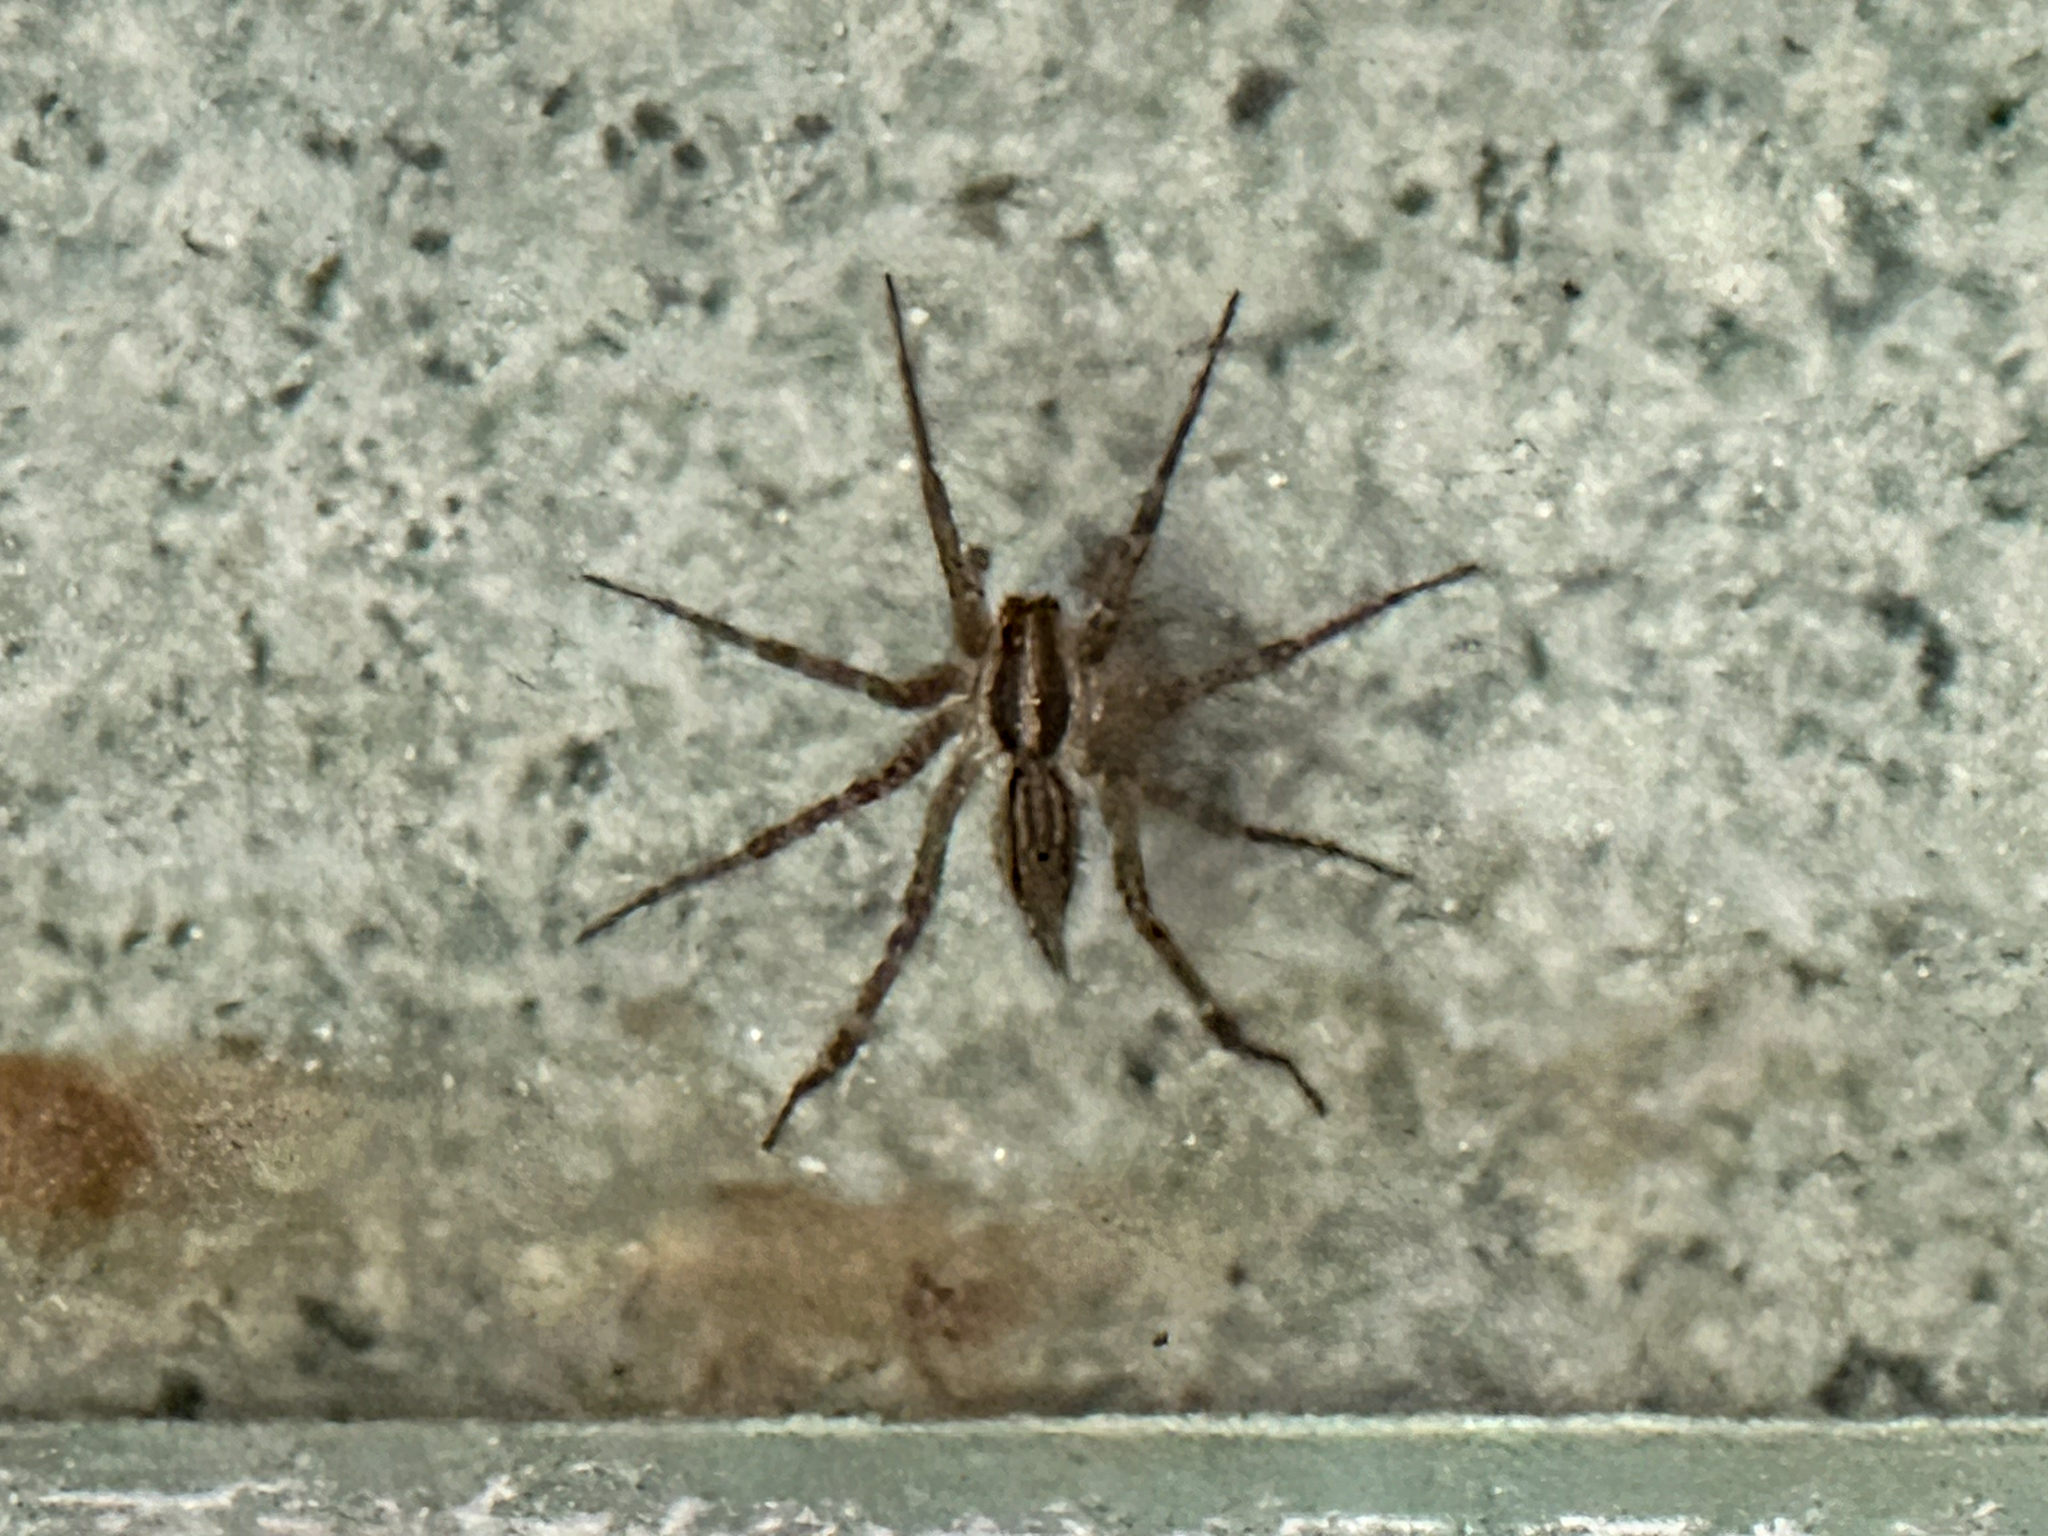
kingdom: Animalia
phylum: Arthropoda
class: Arachnida
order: Araneae
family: Agelenidae
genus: Agelenopsis
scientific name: Agelenopsis
